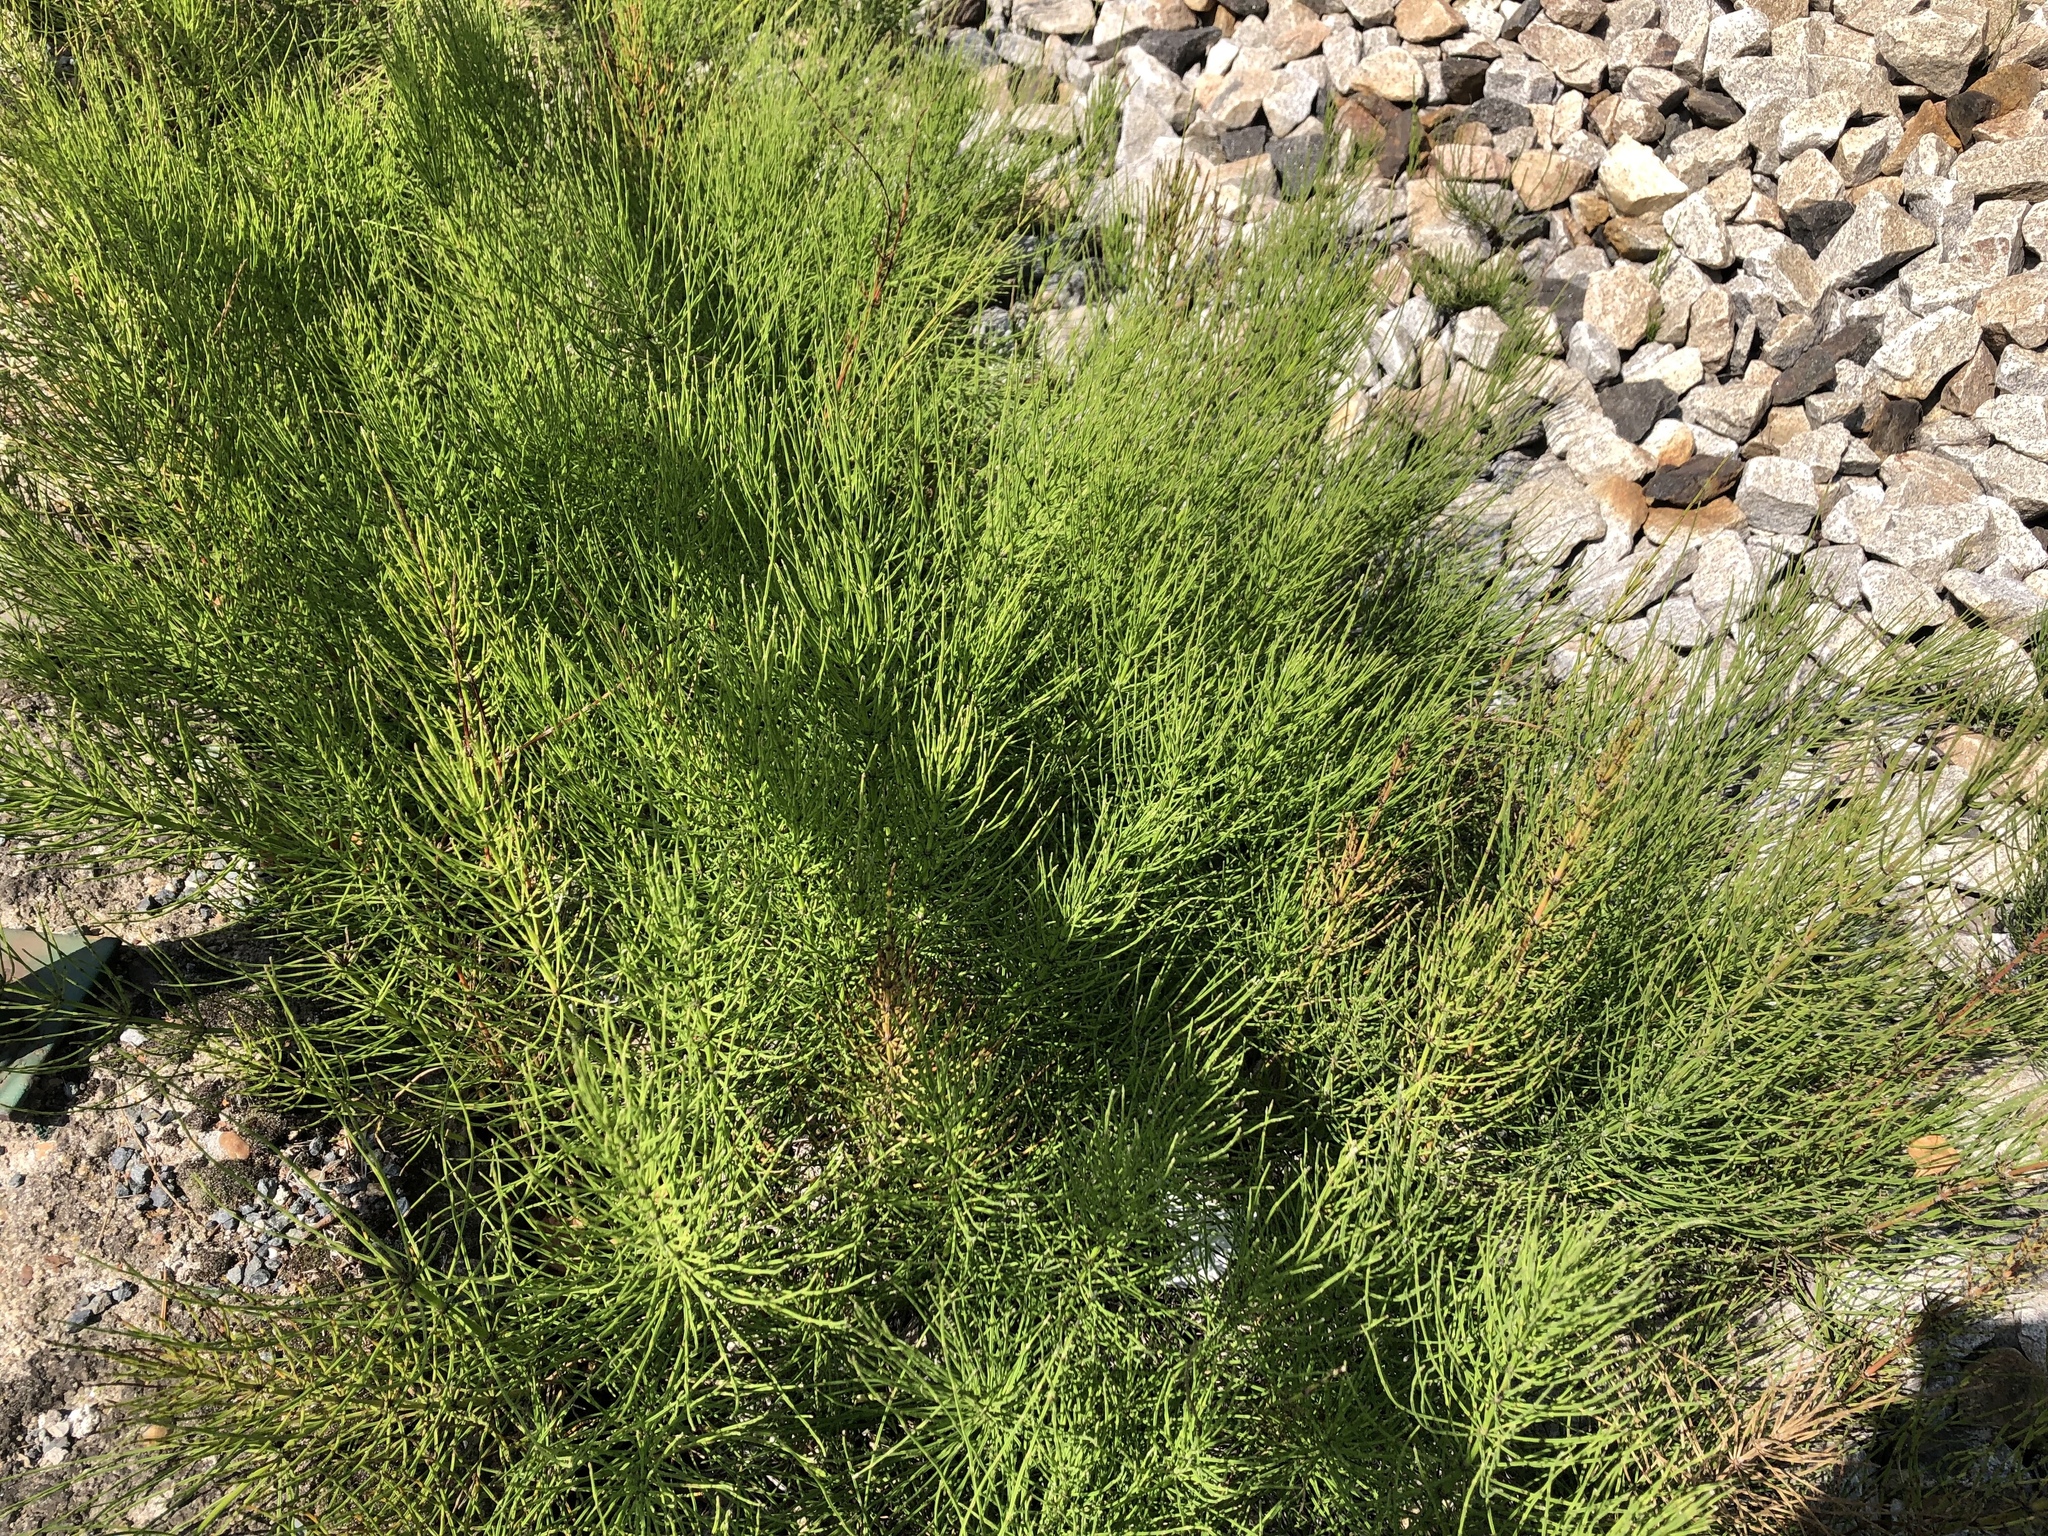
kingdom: Plantae
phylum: Tracheophyta
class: Polypodiopsida
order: Equisetales
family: Equisetaceae
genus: Equisetum
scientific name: Equisetum arvense
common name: Field horsetail
